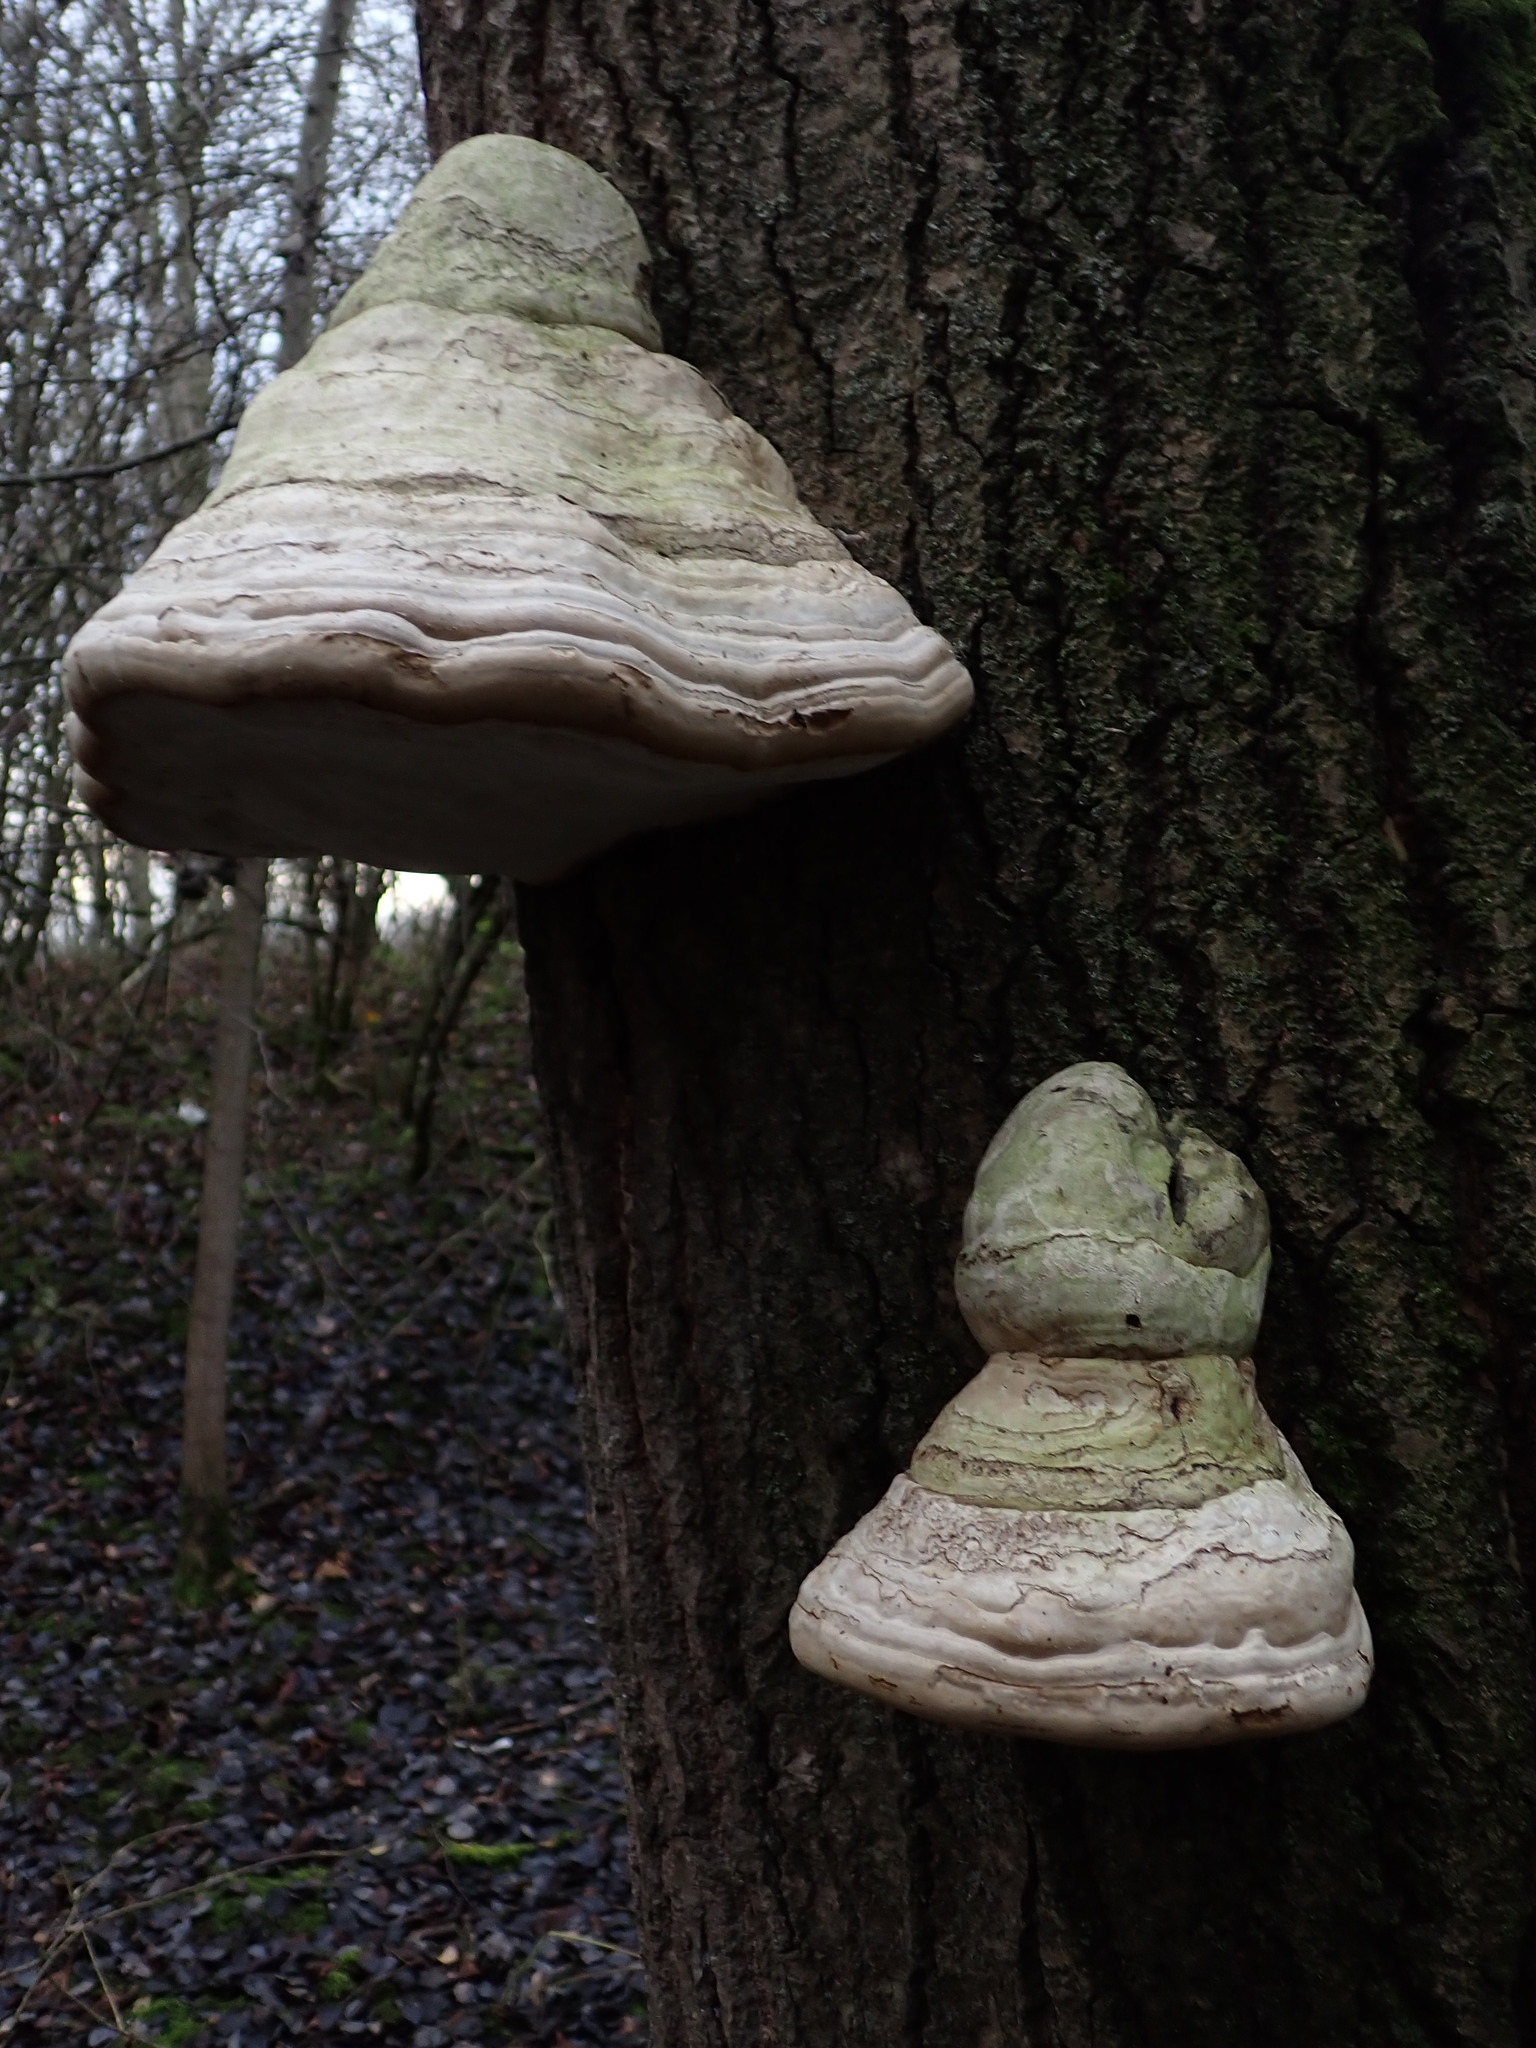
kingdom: Fungi
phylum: Basidiomycota
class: Agaricomycetes
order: Polyporales
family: Polyporaceae
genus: Fomes
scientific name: Fomes fomentarius
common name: Hoof fungus
